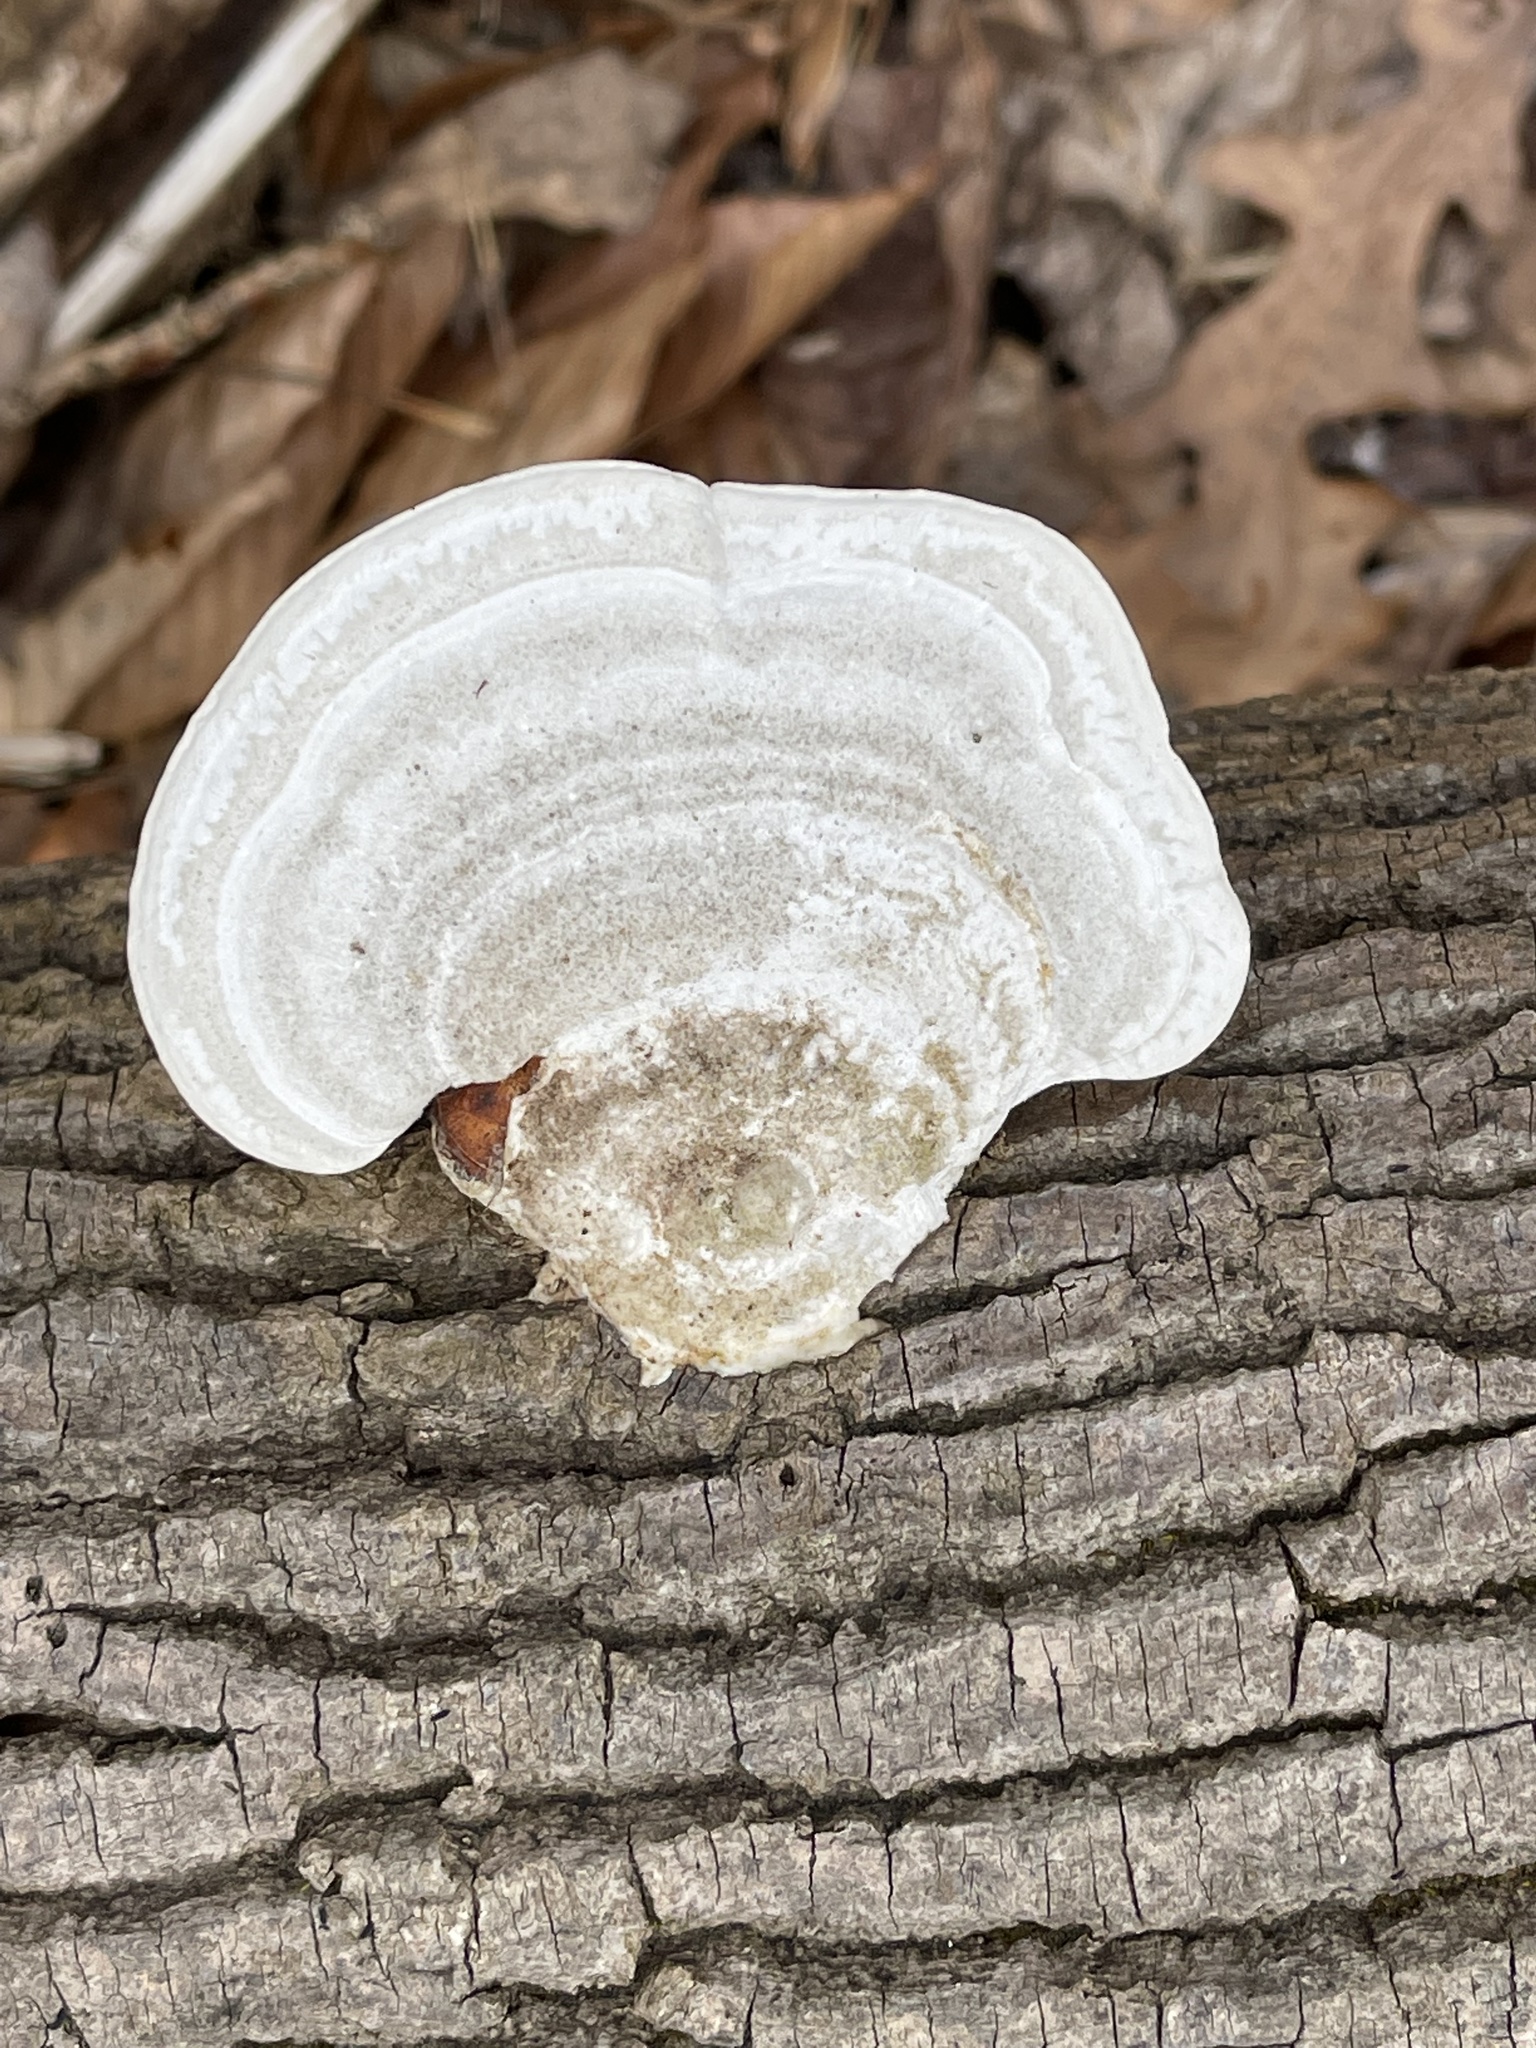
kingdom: Fungi
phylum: Basidiomycota
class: Agaricomycetes
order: Polyporales
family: Polyporaceae
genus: Trametes
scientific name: Trametes gibbosa
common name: Lumpy bracket
